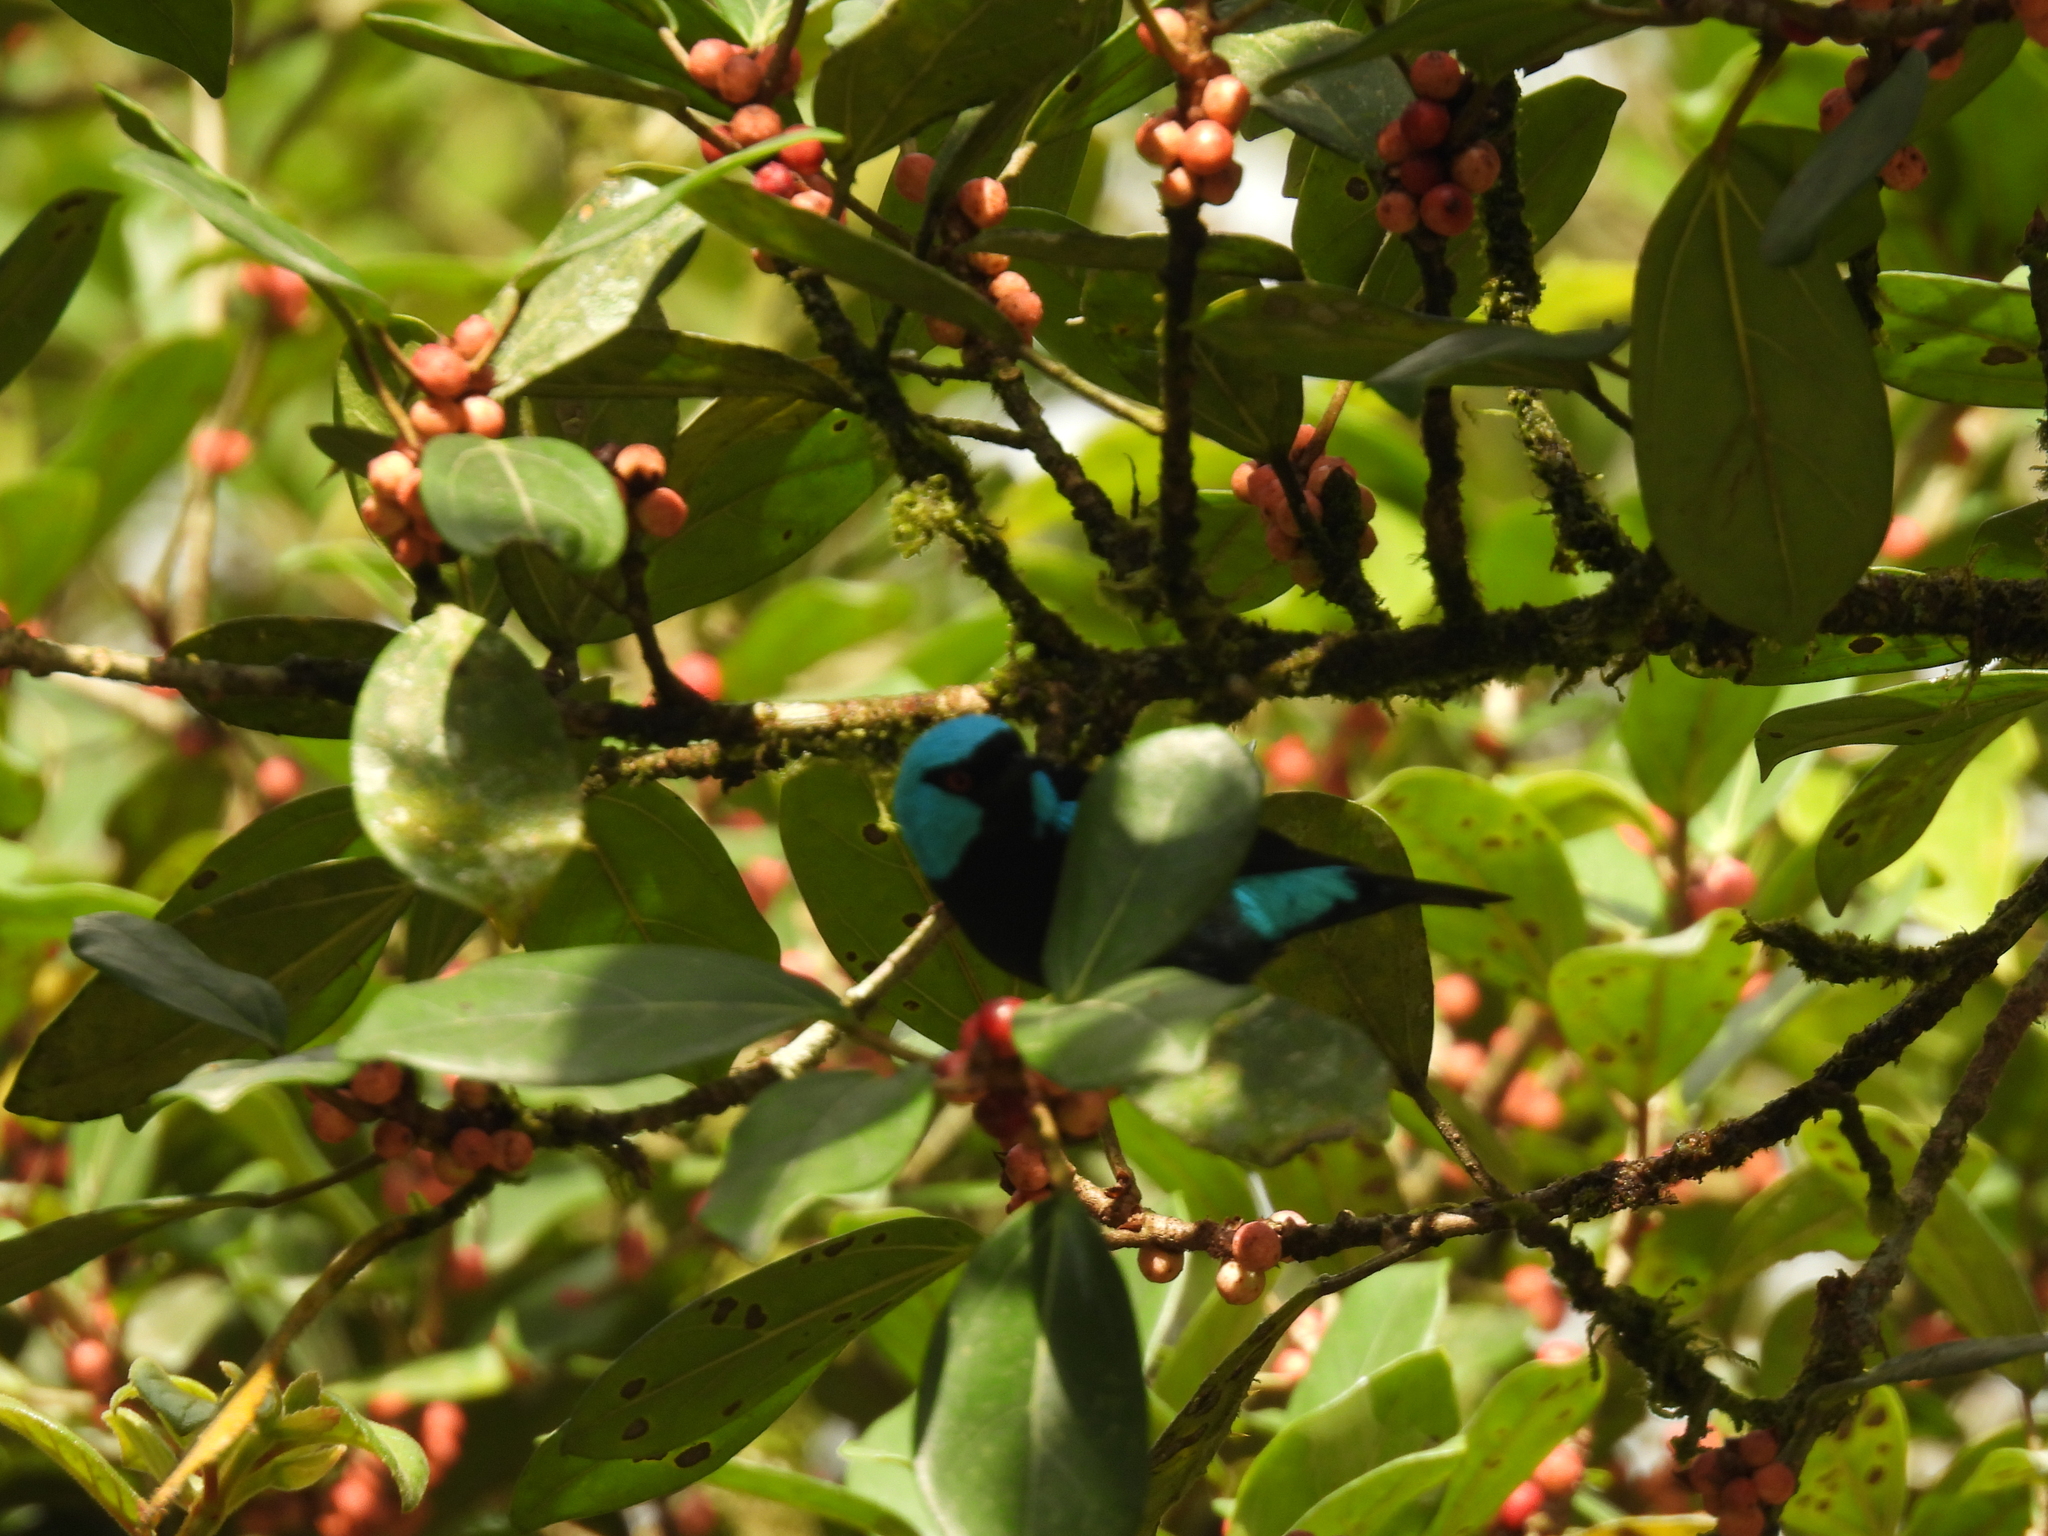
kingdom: Animalia
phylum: Chordata
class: Aves
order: Passeriformes
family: Thraupidae
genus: Dacnis
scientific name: Dacnis venusta
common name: Scarlet-thighed dacnis
